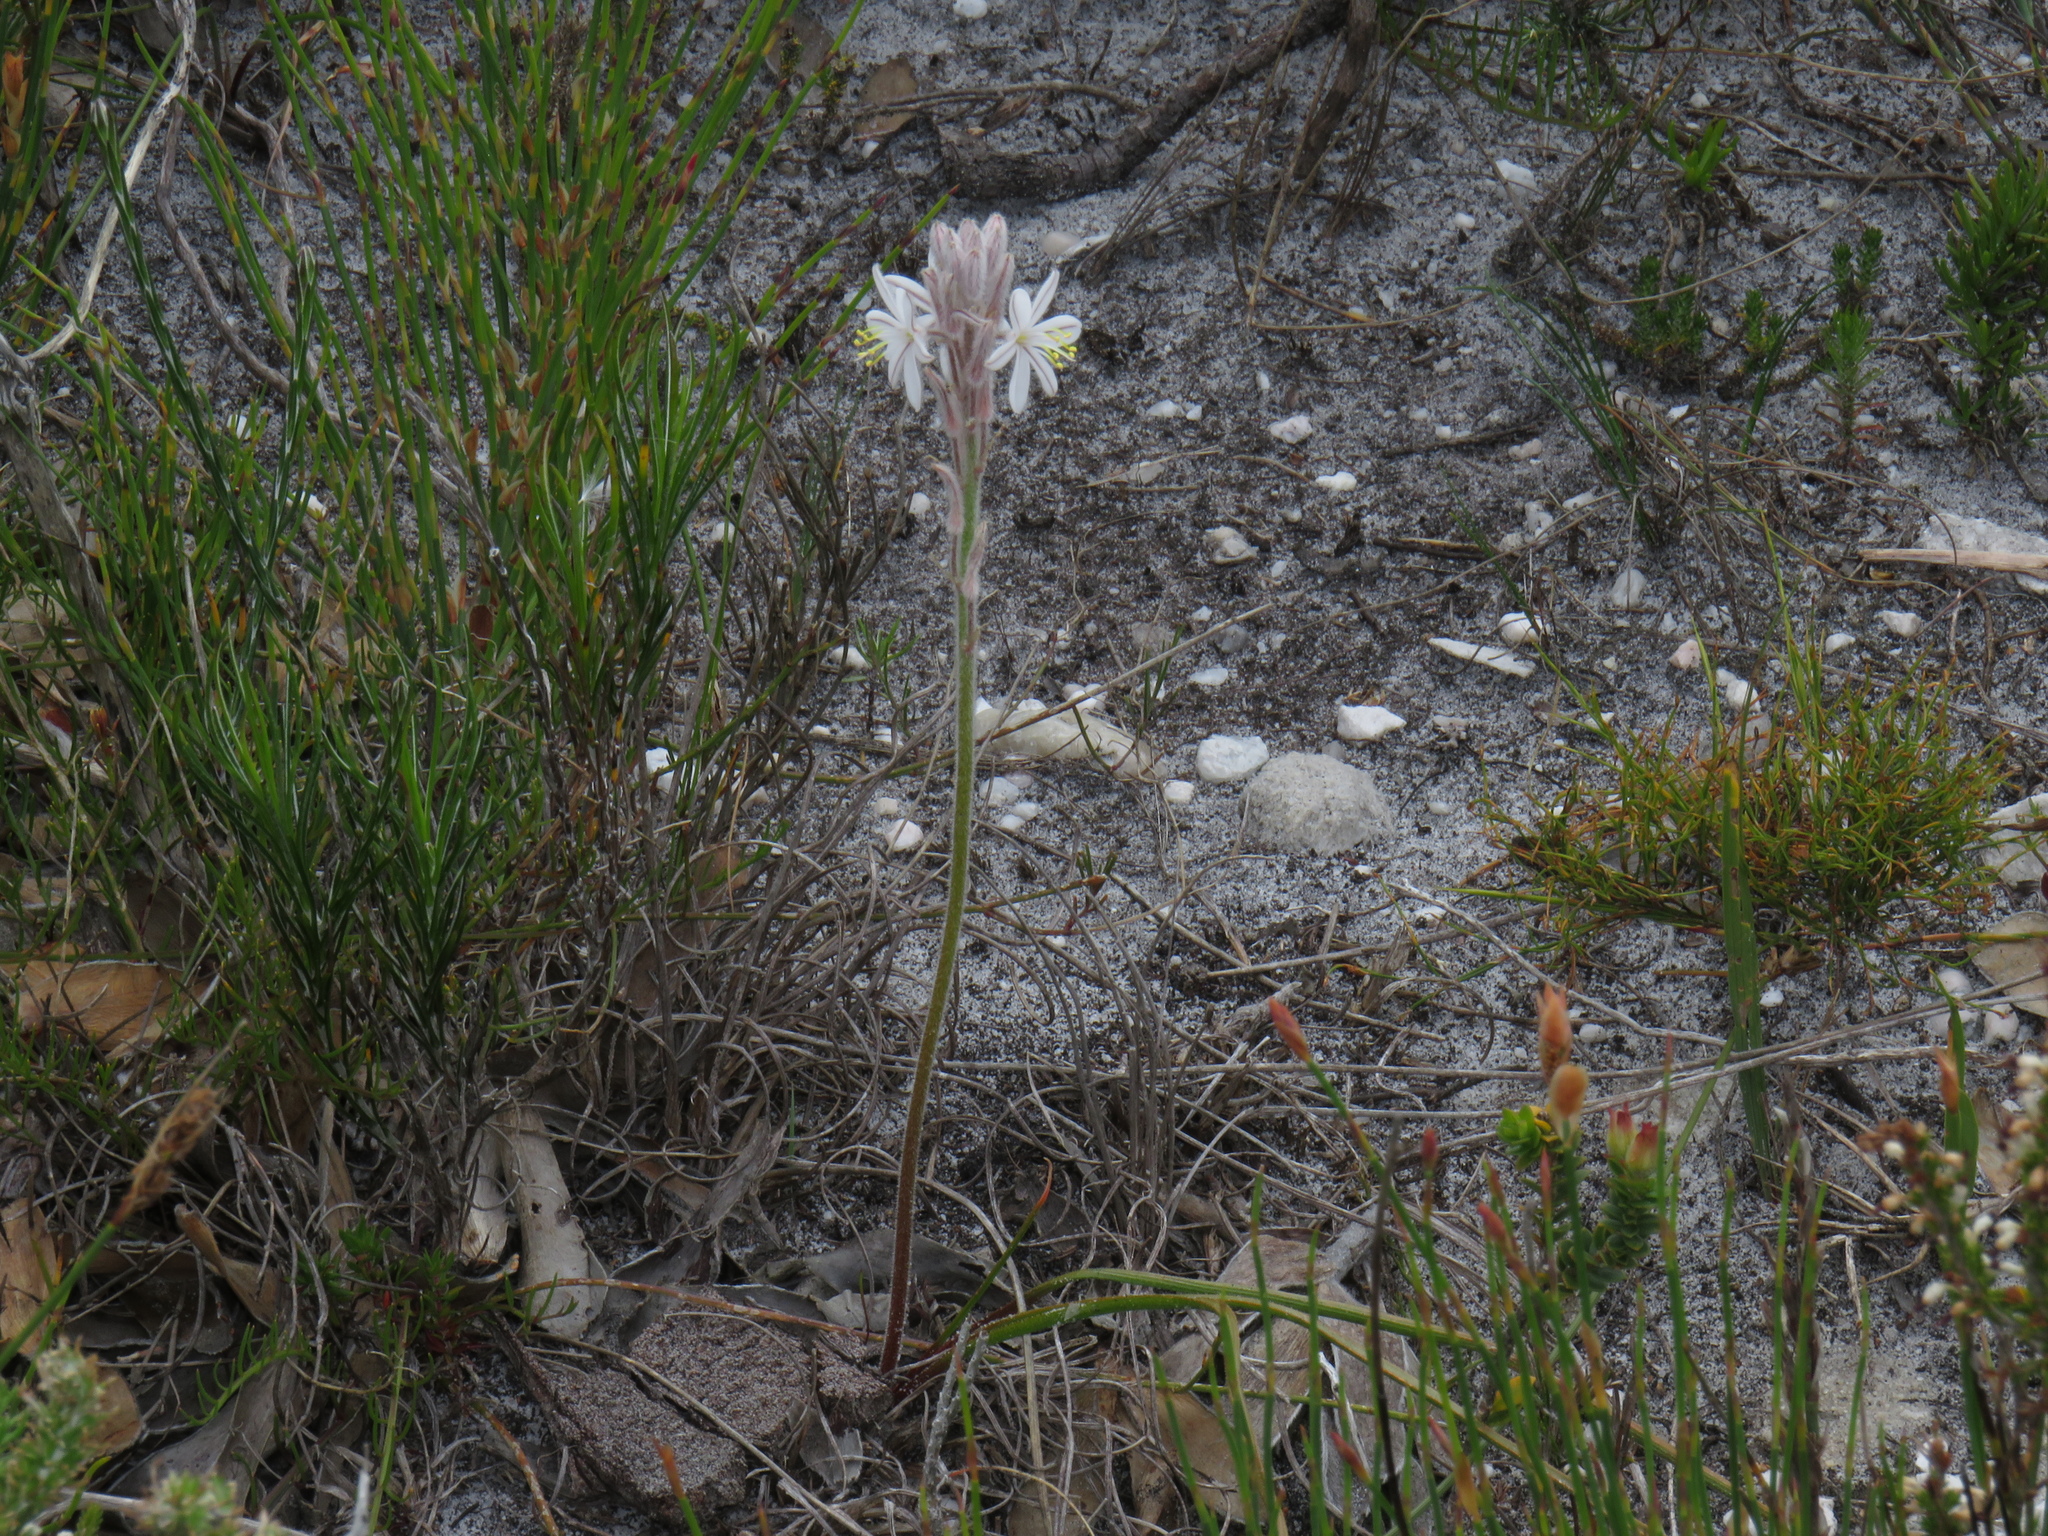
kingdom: Plantae
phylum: Tracheophyta
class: Liliopsida
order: Asparagales
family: Asphodelaceae
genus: Trachyandra
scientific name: Trachyandra hirsutiflora
